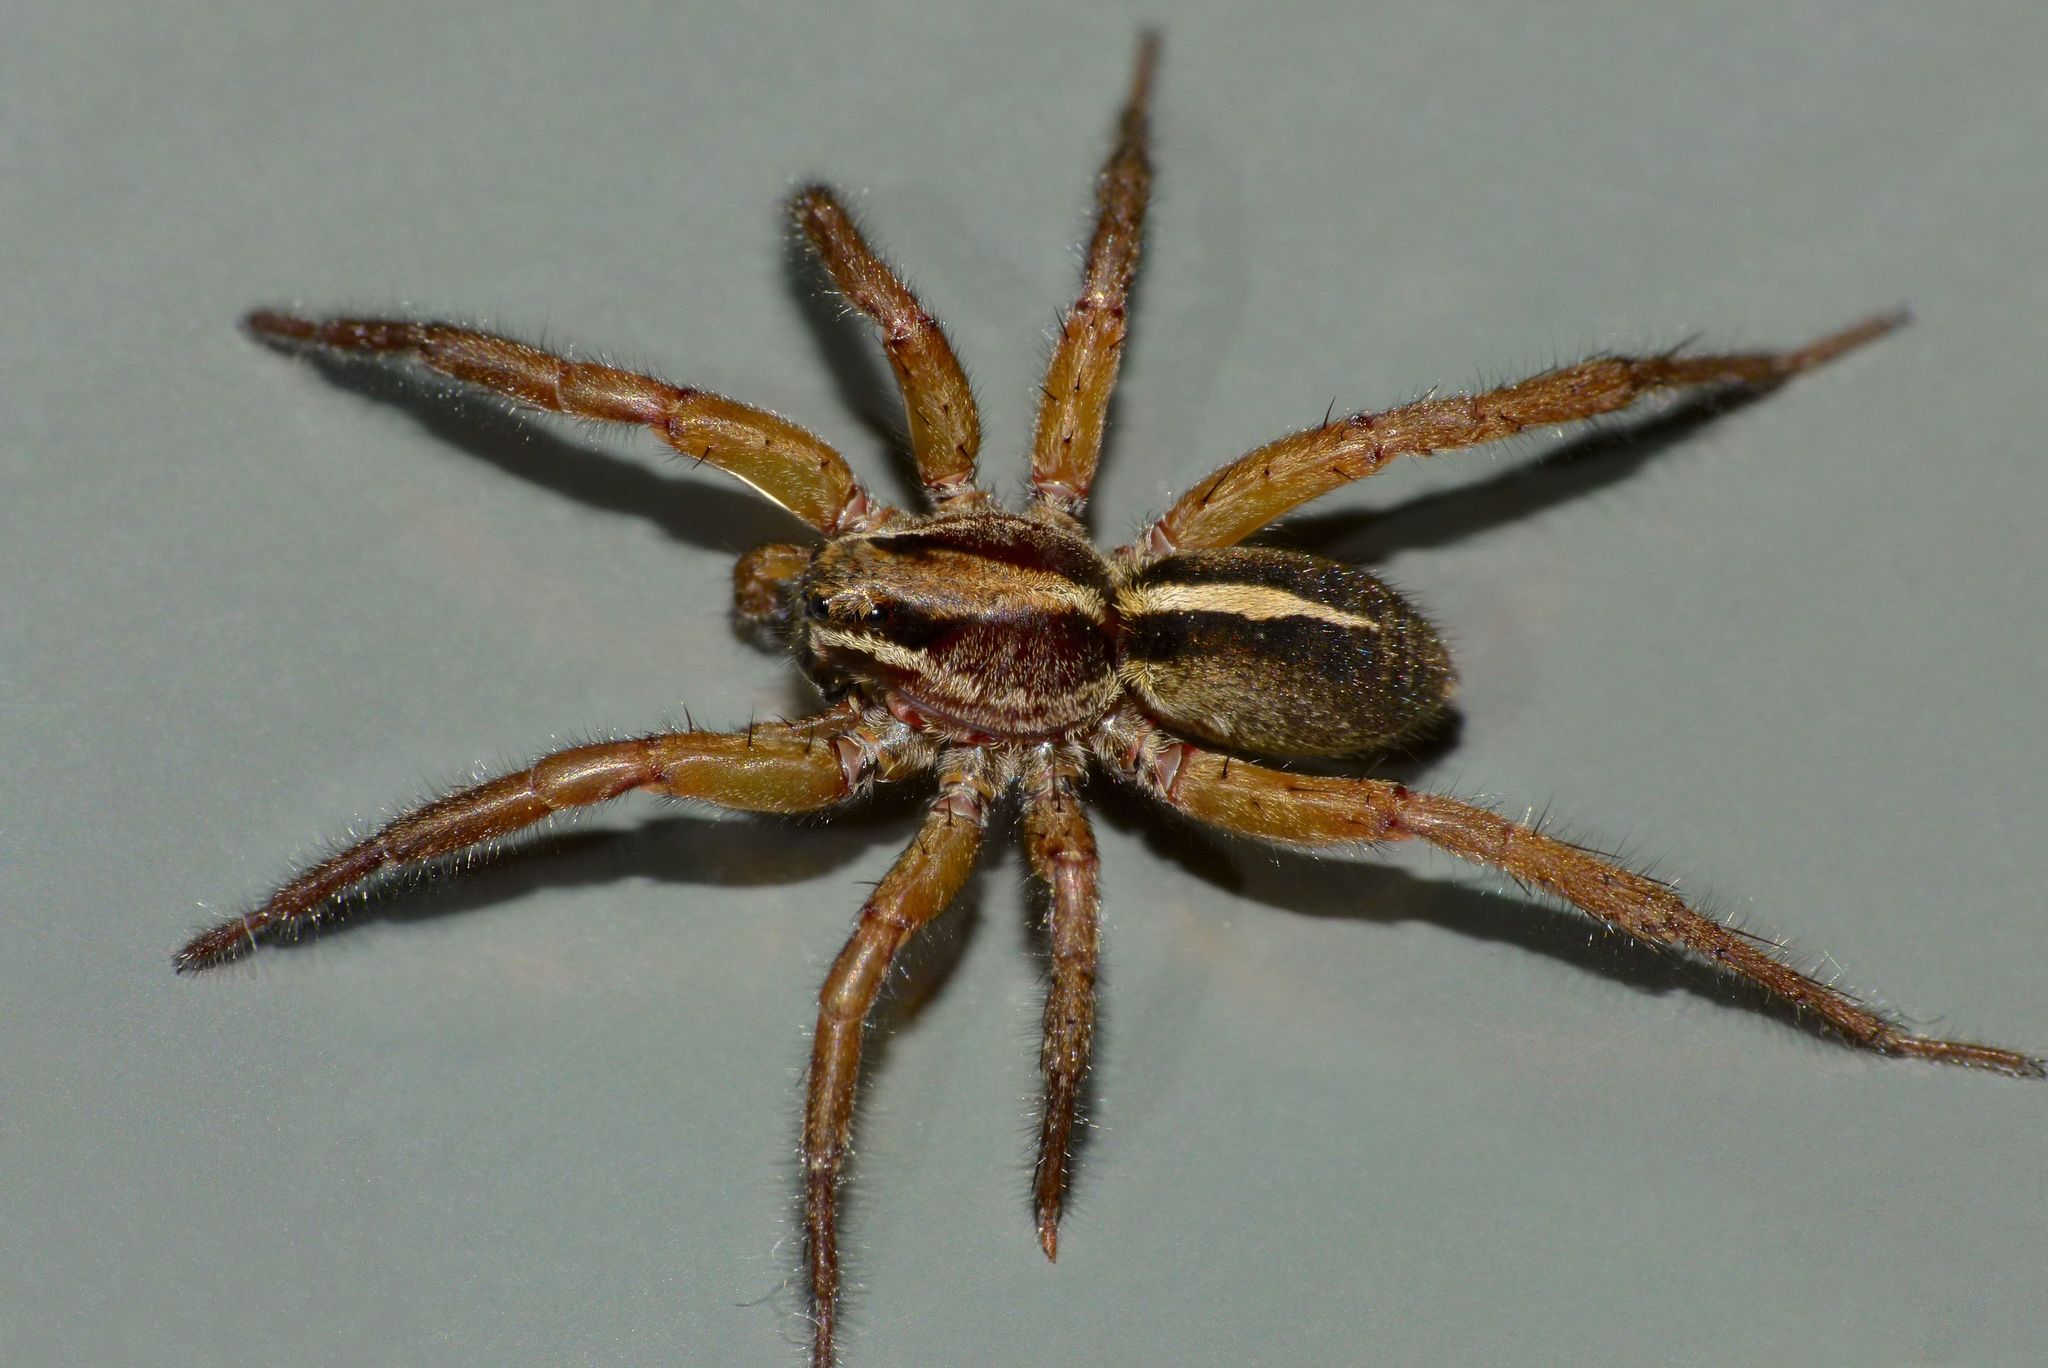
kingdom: Animalia
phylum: Arthropoda
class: Arachnida
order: Araneae
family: Lycosidae
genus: Anoteropsis
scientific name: Anoteropsis hilaris
